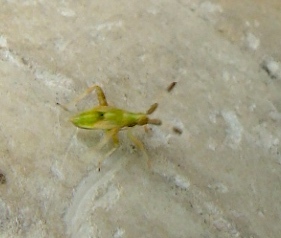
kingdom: Animalia
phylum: Arthropoda
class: Insecta
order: Hemiptera
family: Miridae
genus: Neurocolpus
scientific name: Neurocolpus
